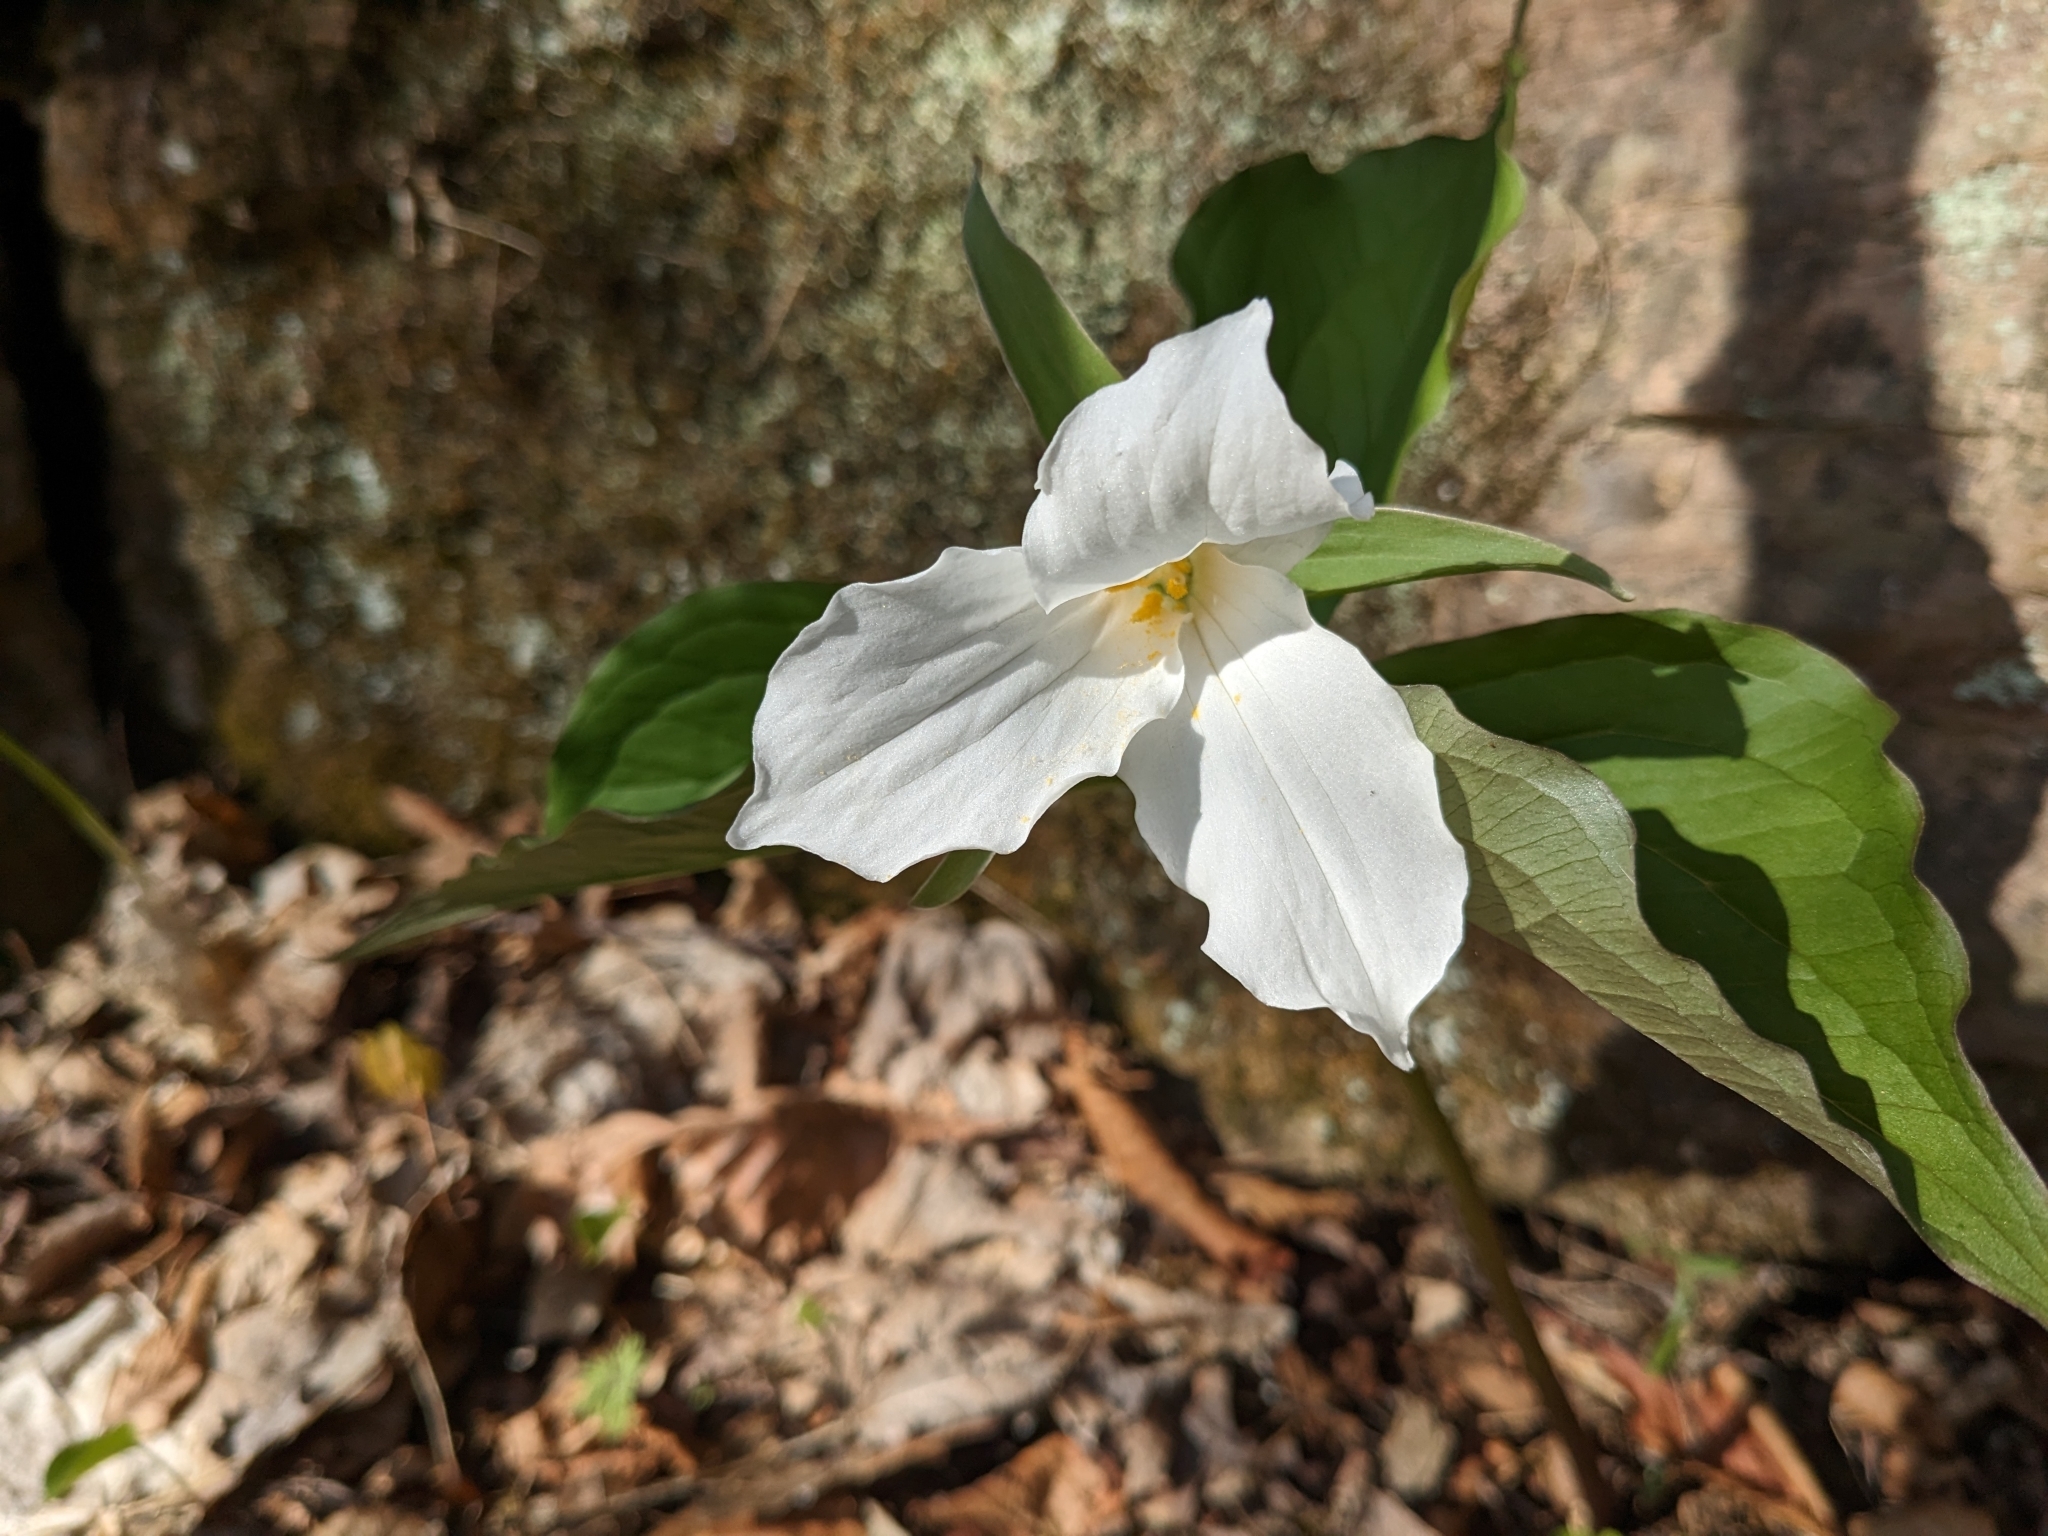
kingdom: Plantae
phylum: Tracheophyta
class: Liliopsida
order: Liliales
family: Melanthiaceae
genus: Trillium
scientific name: Trillium grandiflorum
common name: Great white trillium
